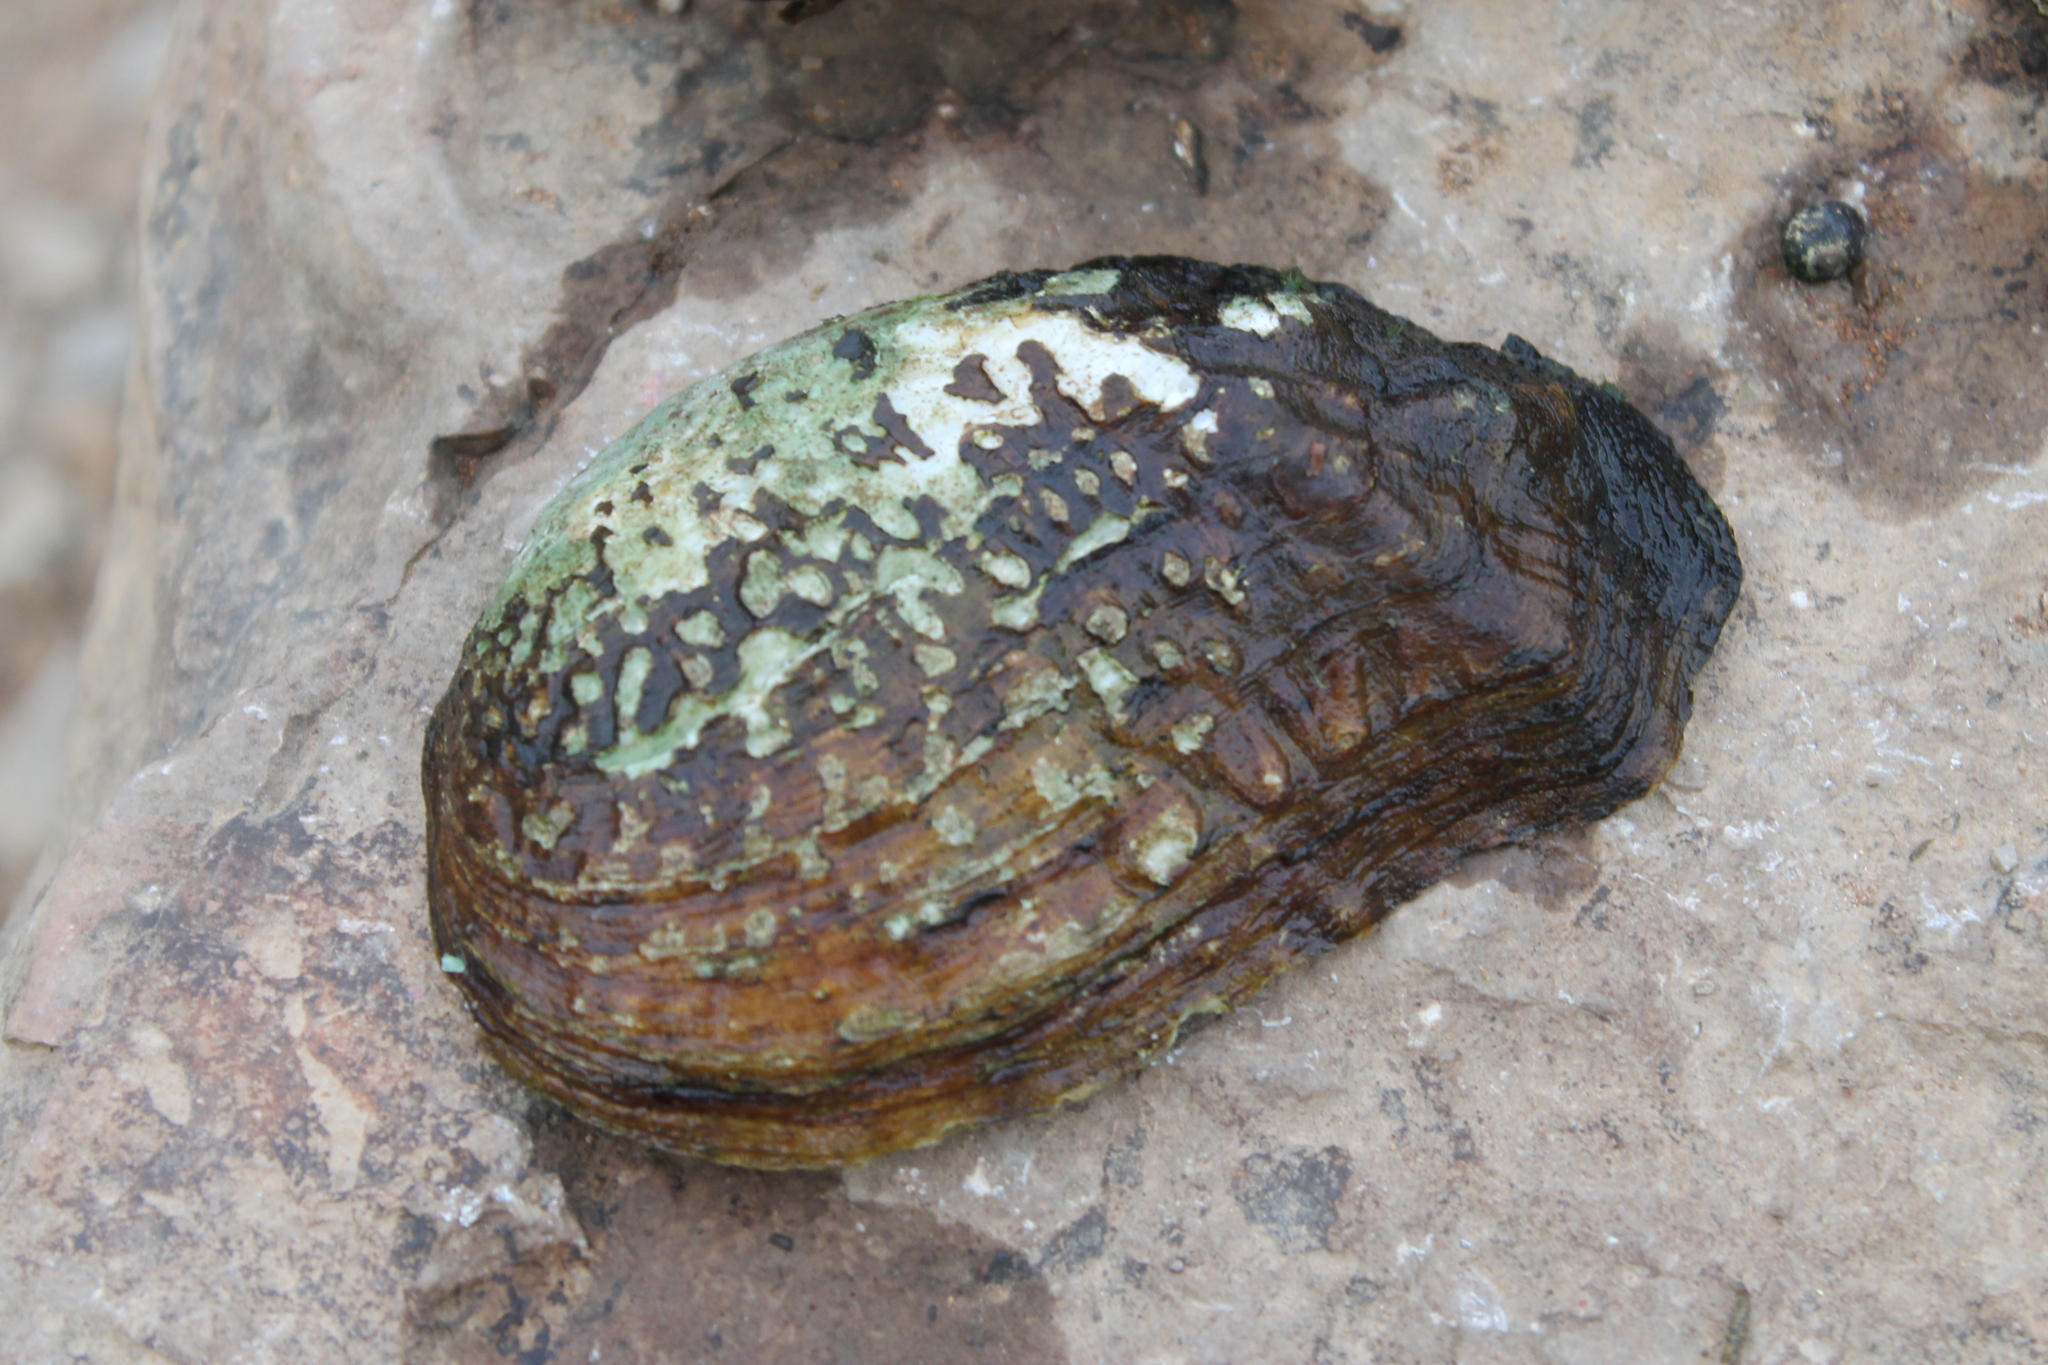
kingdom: Animalia
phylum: Mollusca
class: Bivalvia
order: Unionida
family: Unionidae
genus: Tritogonia
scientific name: Tritogonia verrucosa
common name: Pistolgrip
